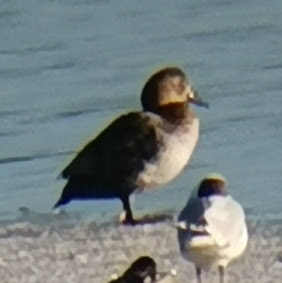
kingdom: Animalia
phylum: Chordata
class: Aves
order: Anseriformes
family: Anatidae
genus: Aythya
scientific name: Aythya ferina
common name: Common pochard
